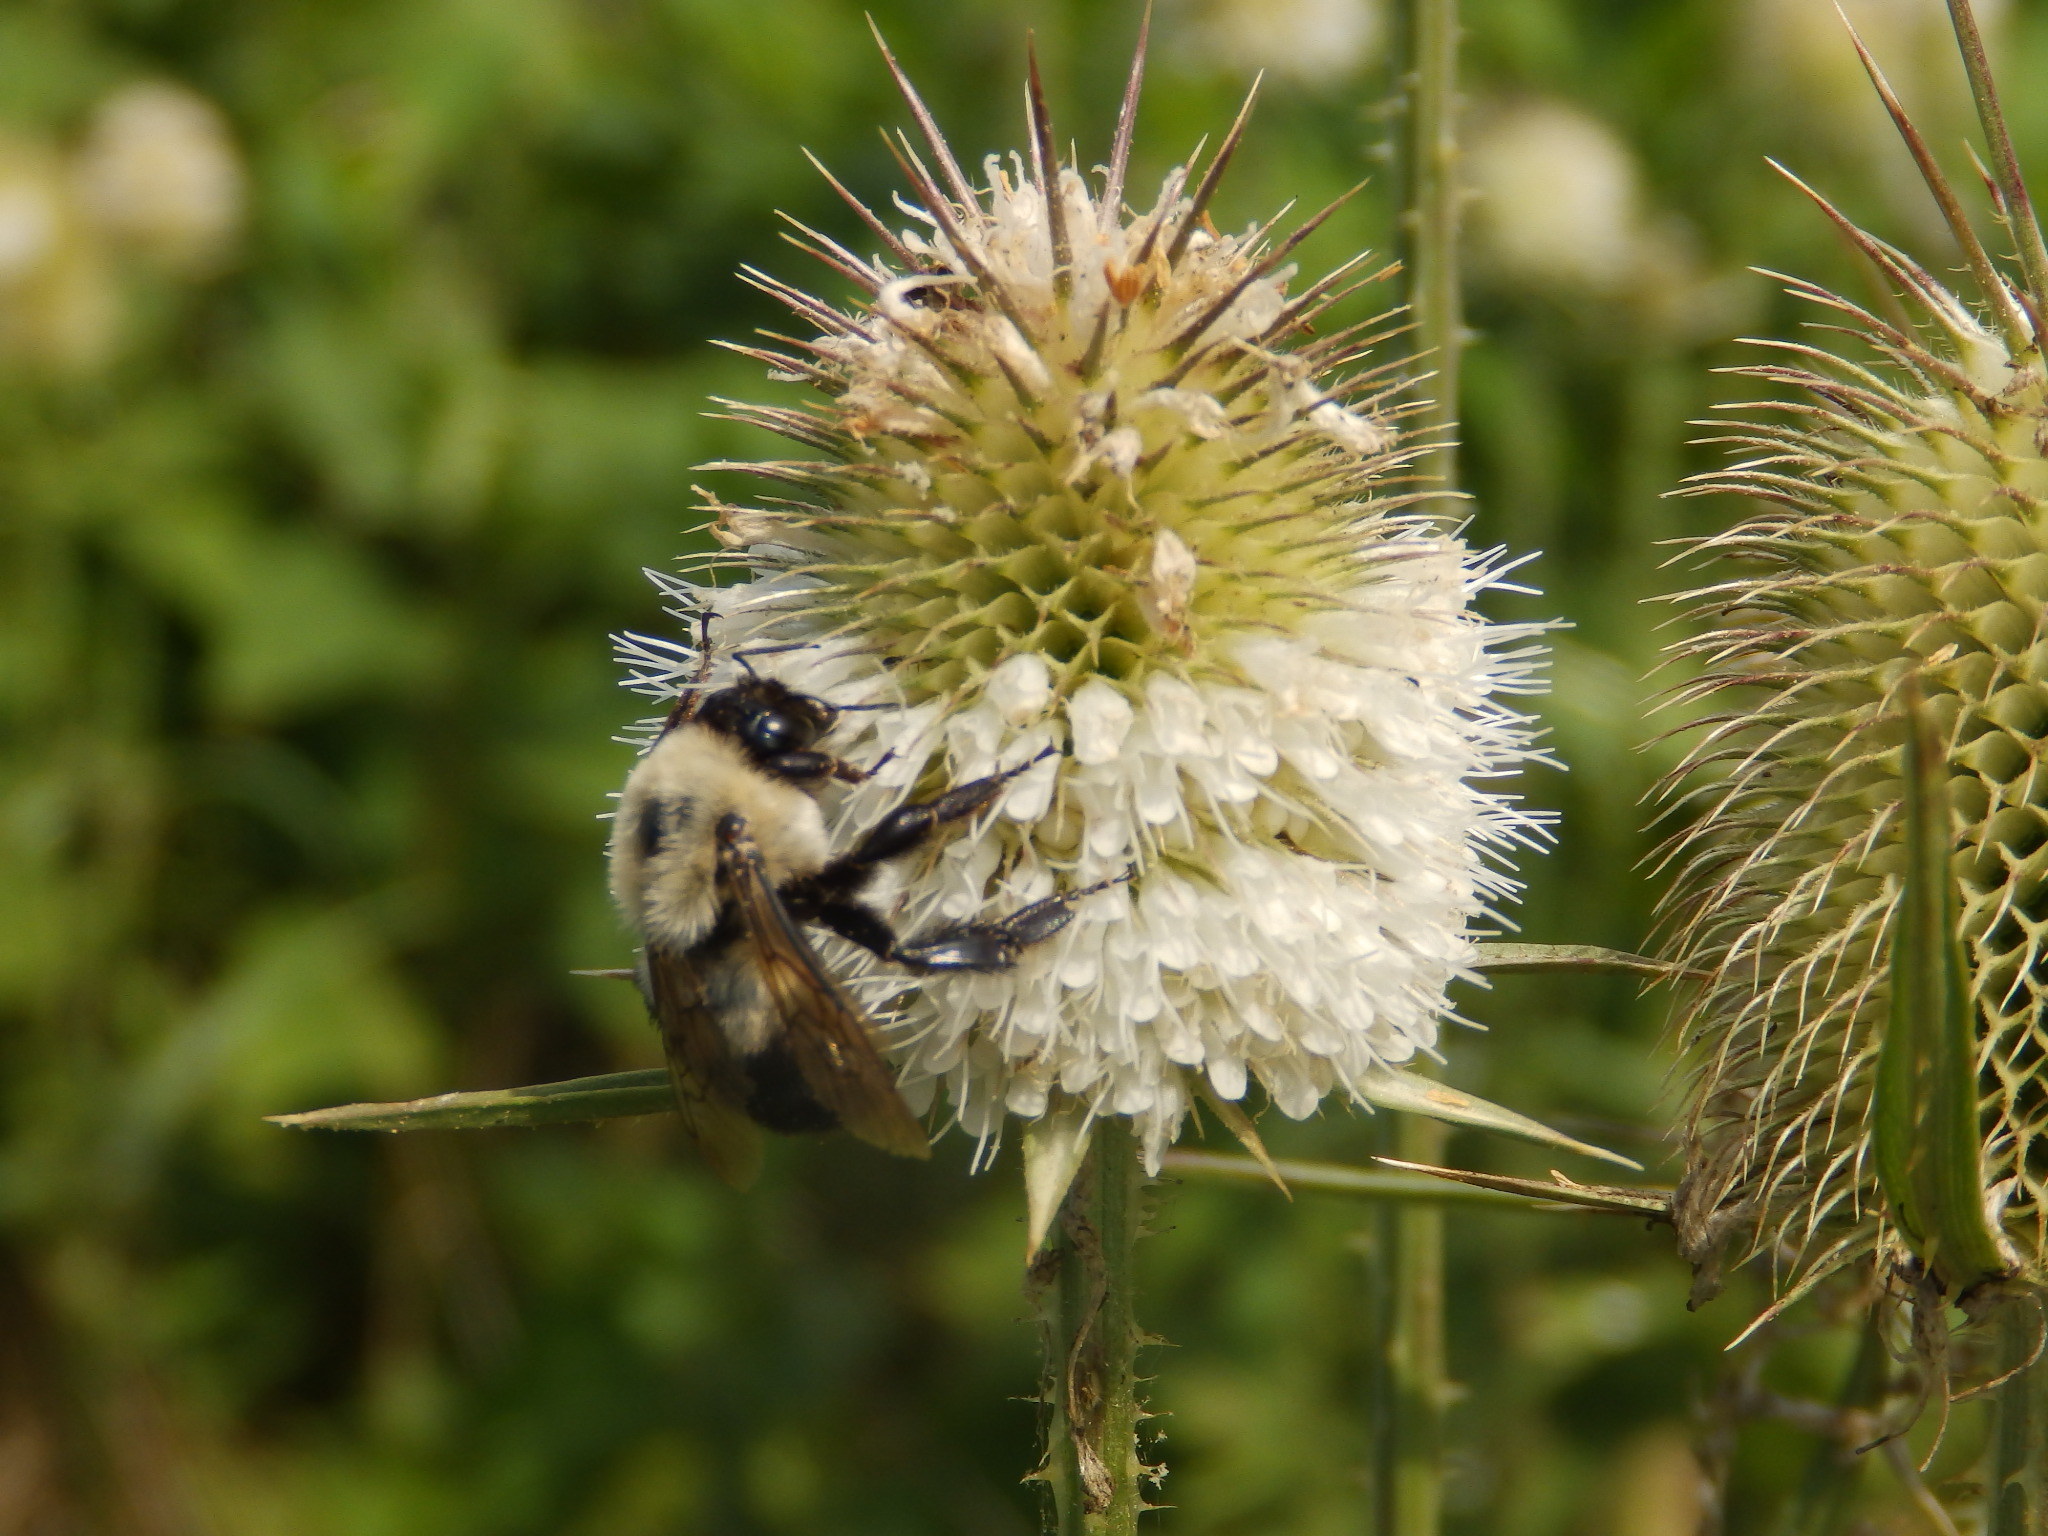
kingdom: Animalia
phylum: Arthropoda
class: Insecta
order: Hymenoptera
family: Apidae
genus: Bombus
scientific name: Bombus griseocollis
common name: Brown-belted bumble bee
